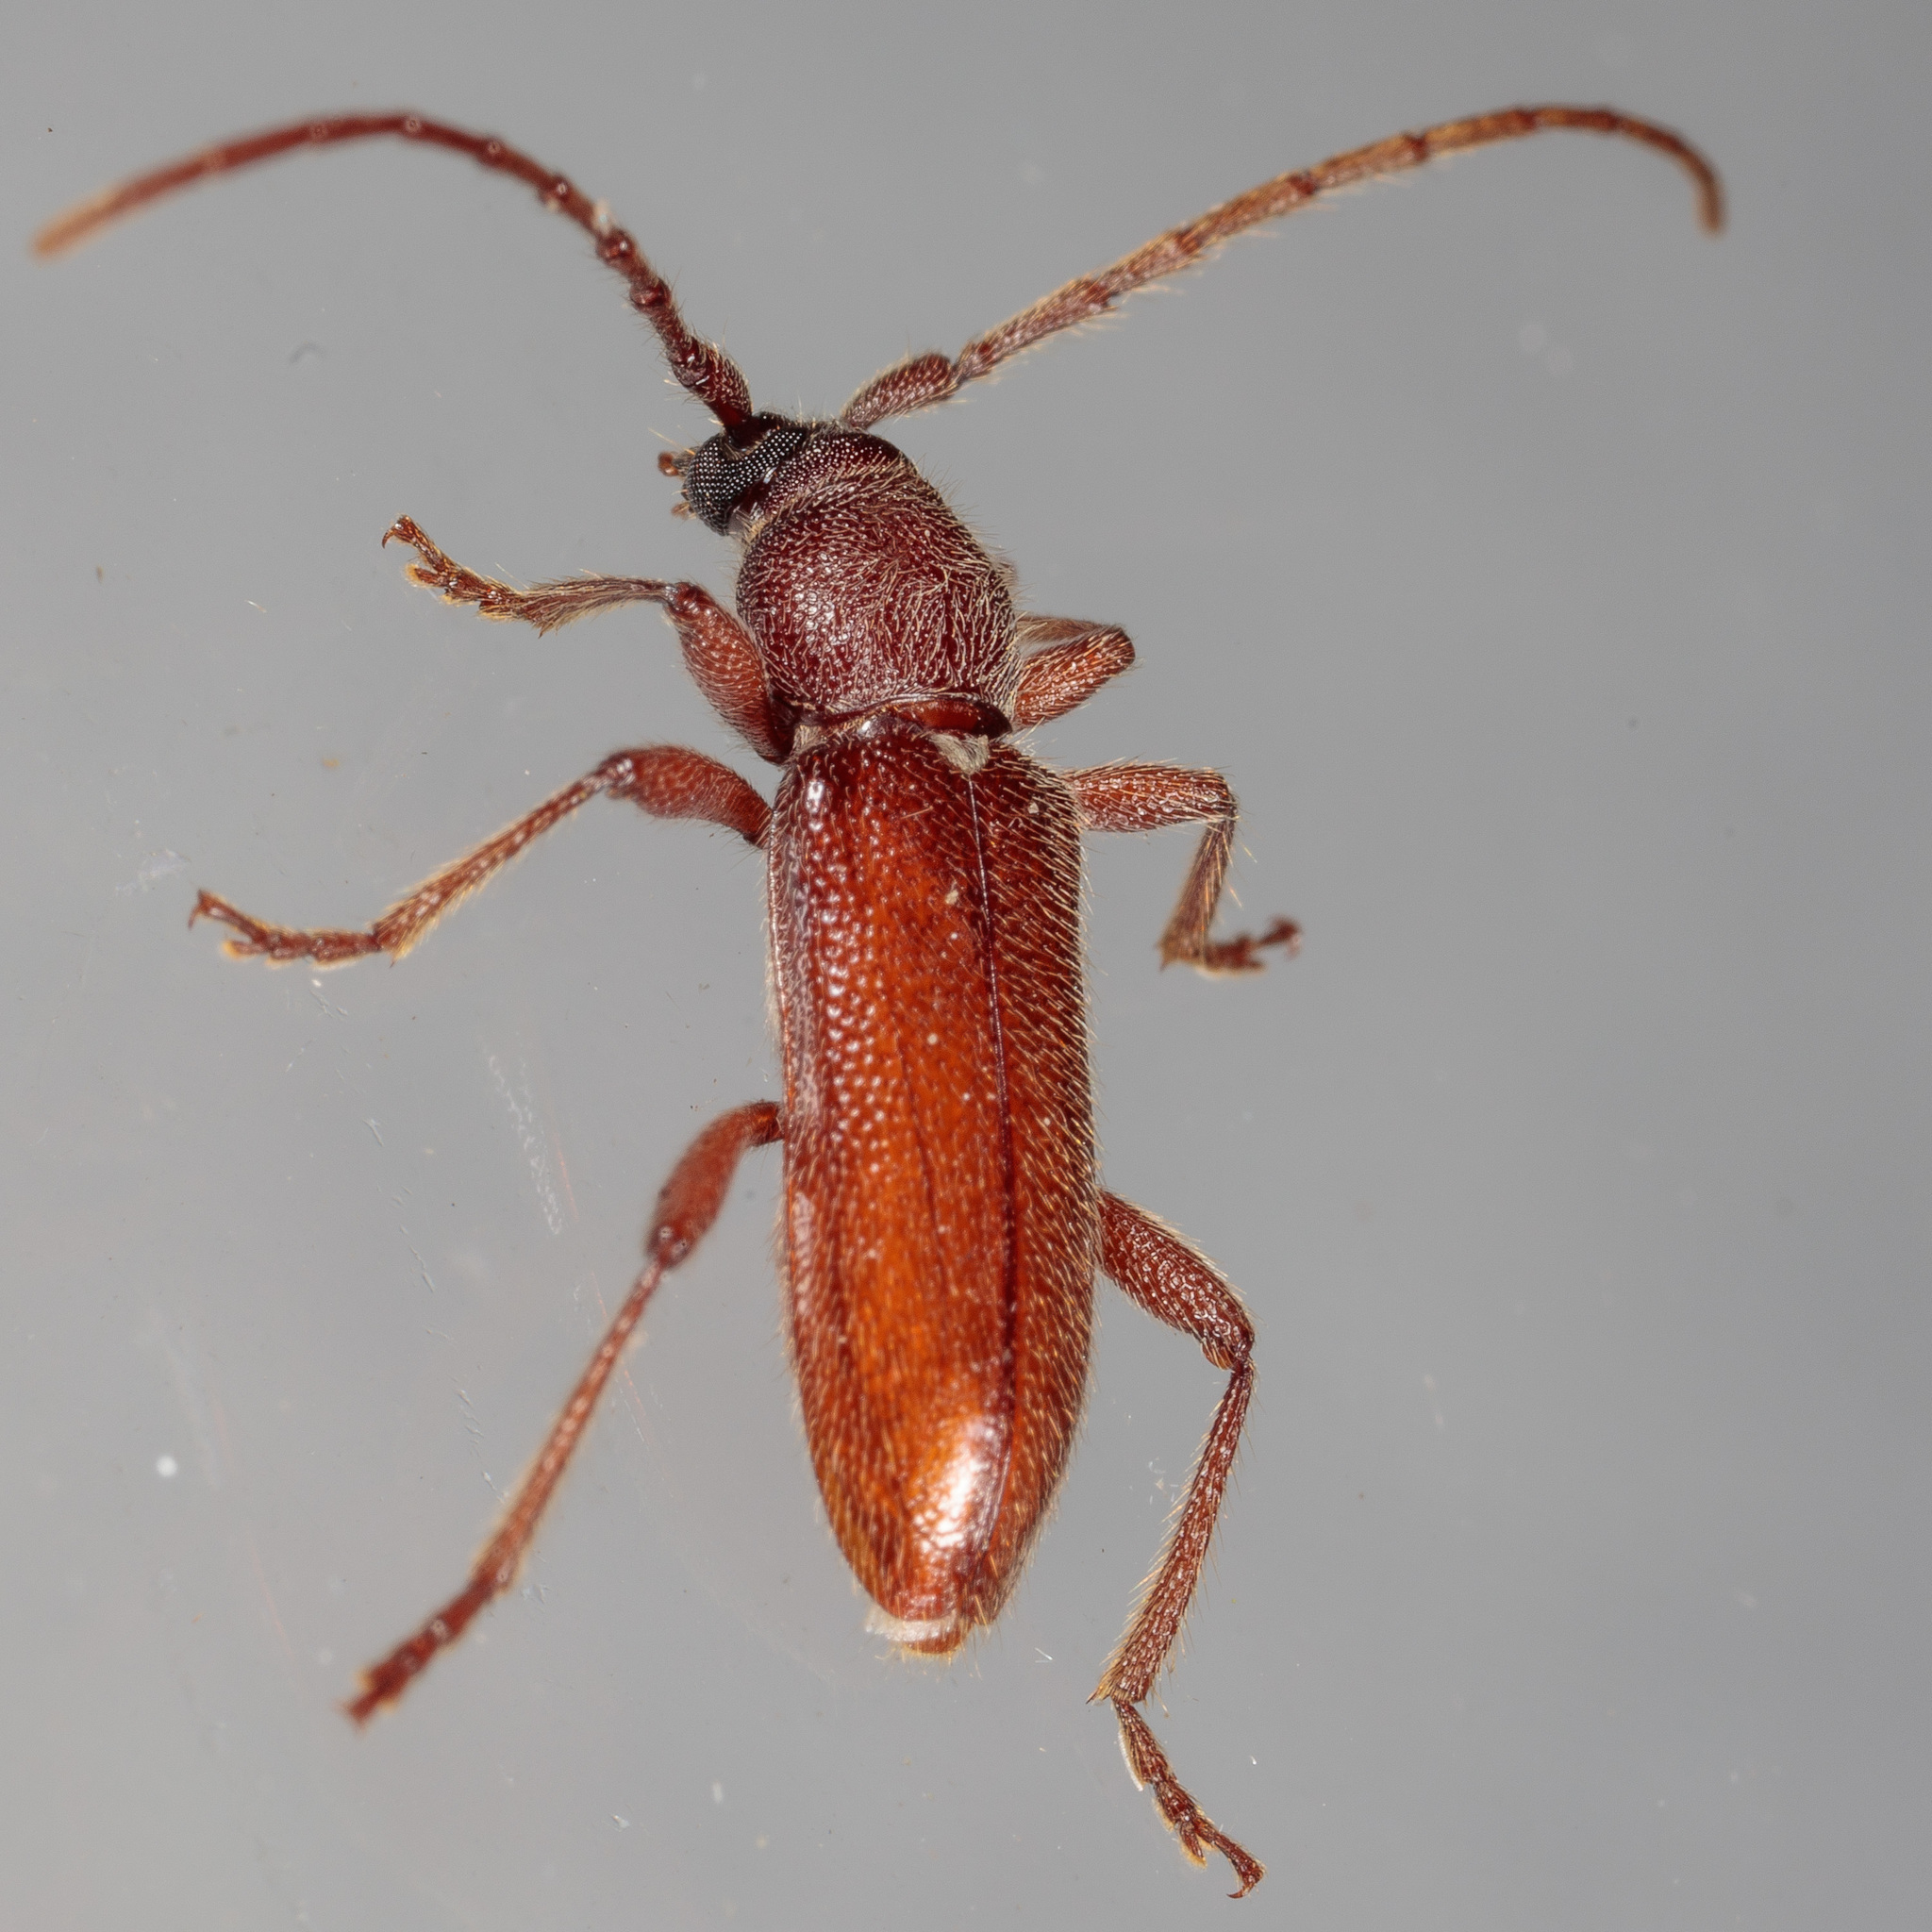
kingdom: Animalia
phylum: Arthropoda
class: Insecta
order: Coleoptera
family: Cerambycidae
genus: Anelaphus
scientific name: Anelaphus moestus
